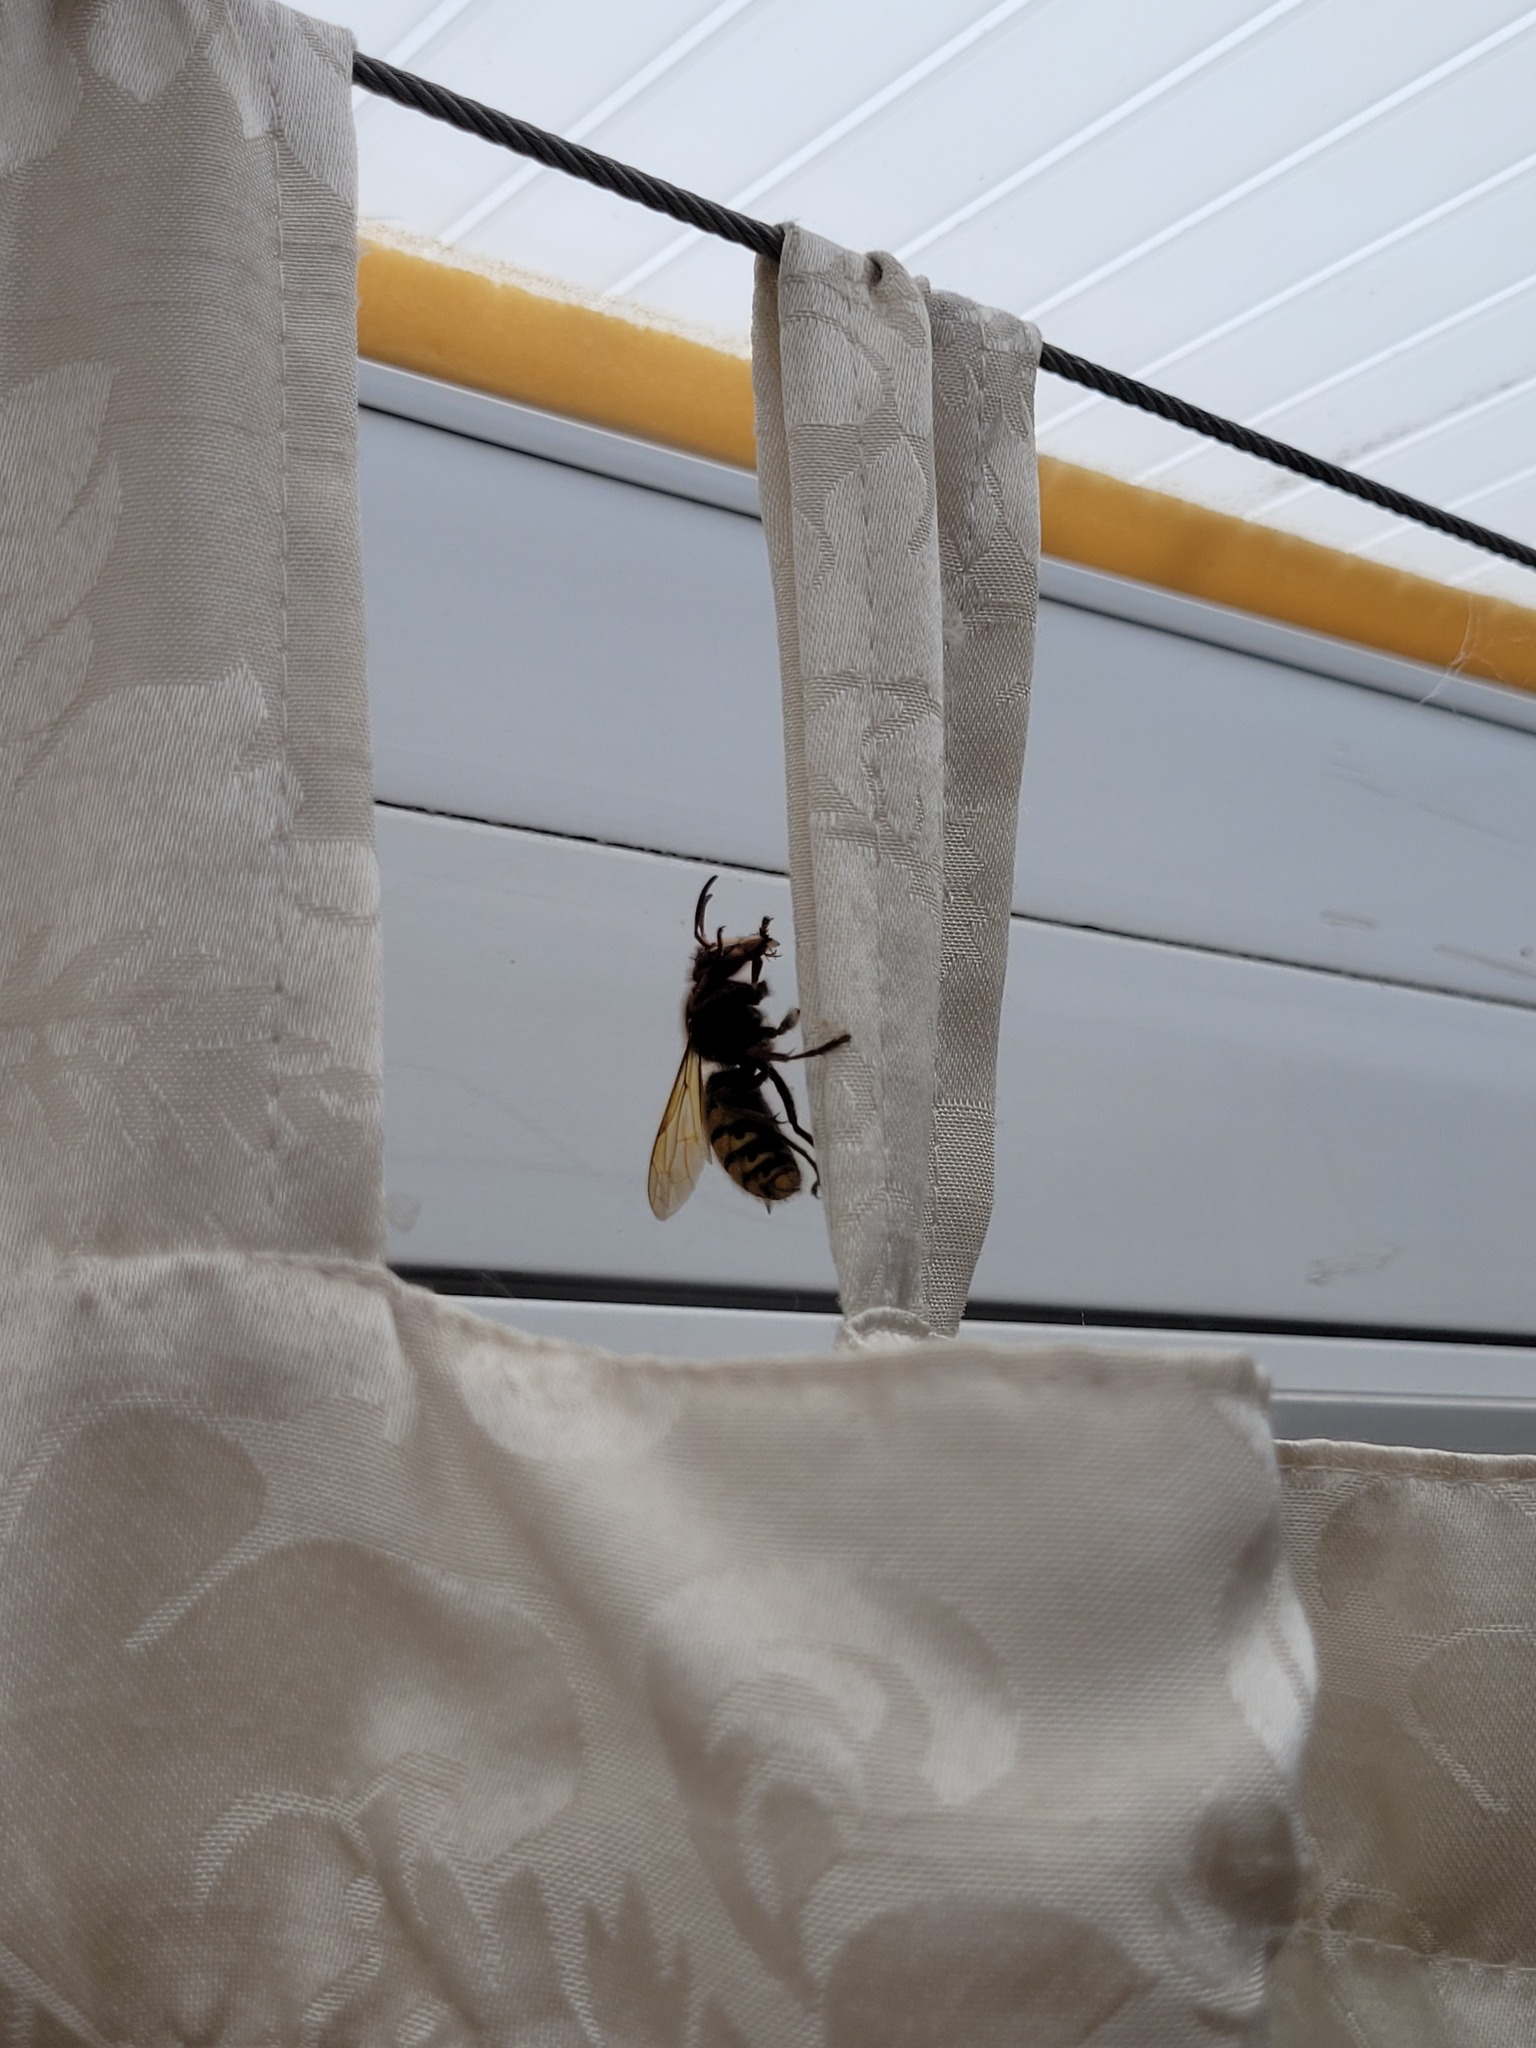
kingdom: Animalia
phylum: Arthropoda
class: Insecta
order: Hymenoptera
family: Vespidae
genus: Vespa
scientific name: Vespa crabro
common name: Hornet
